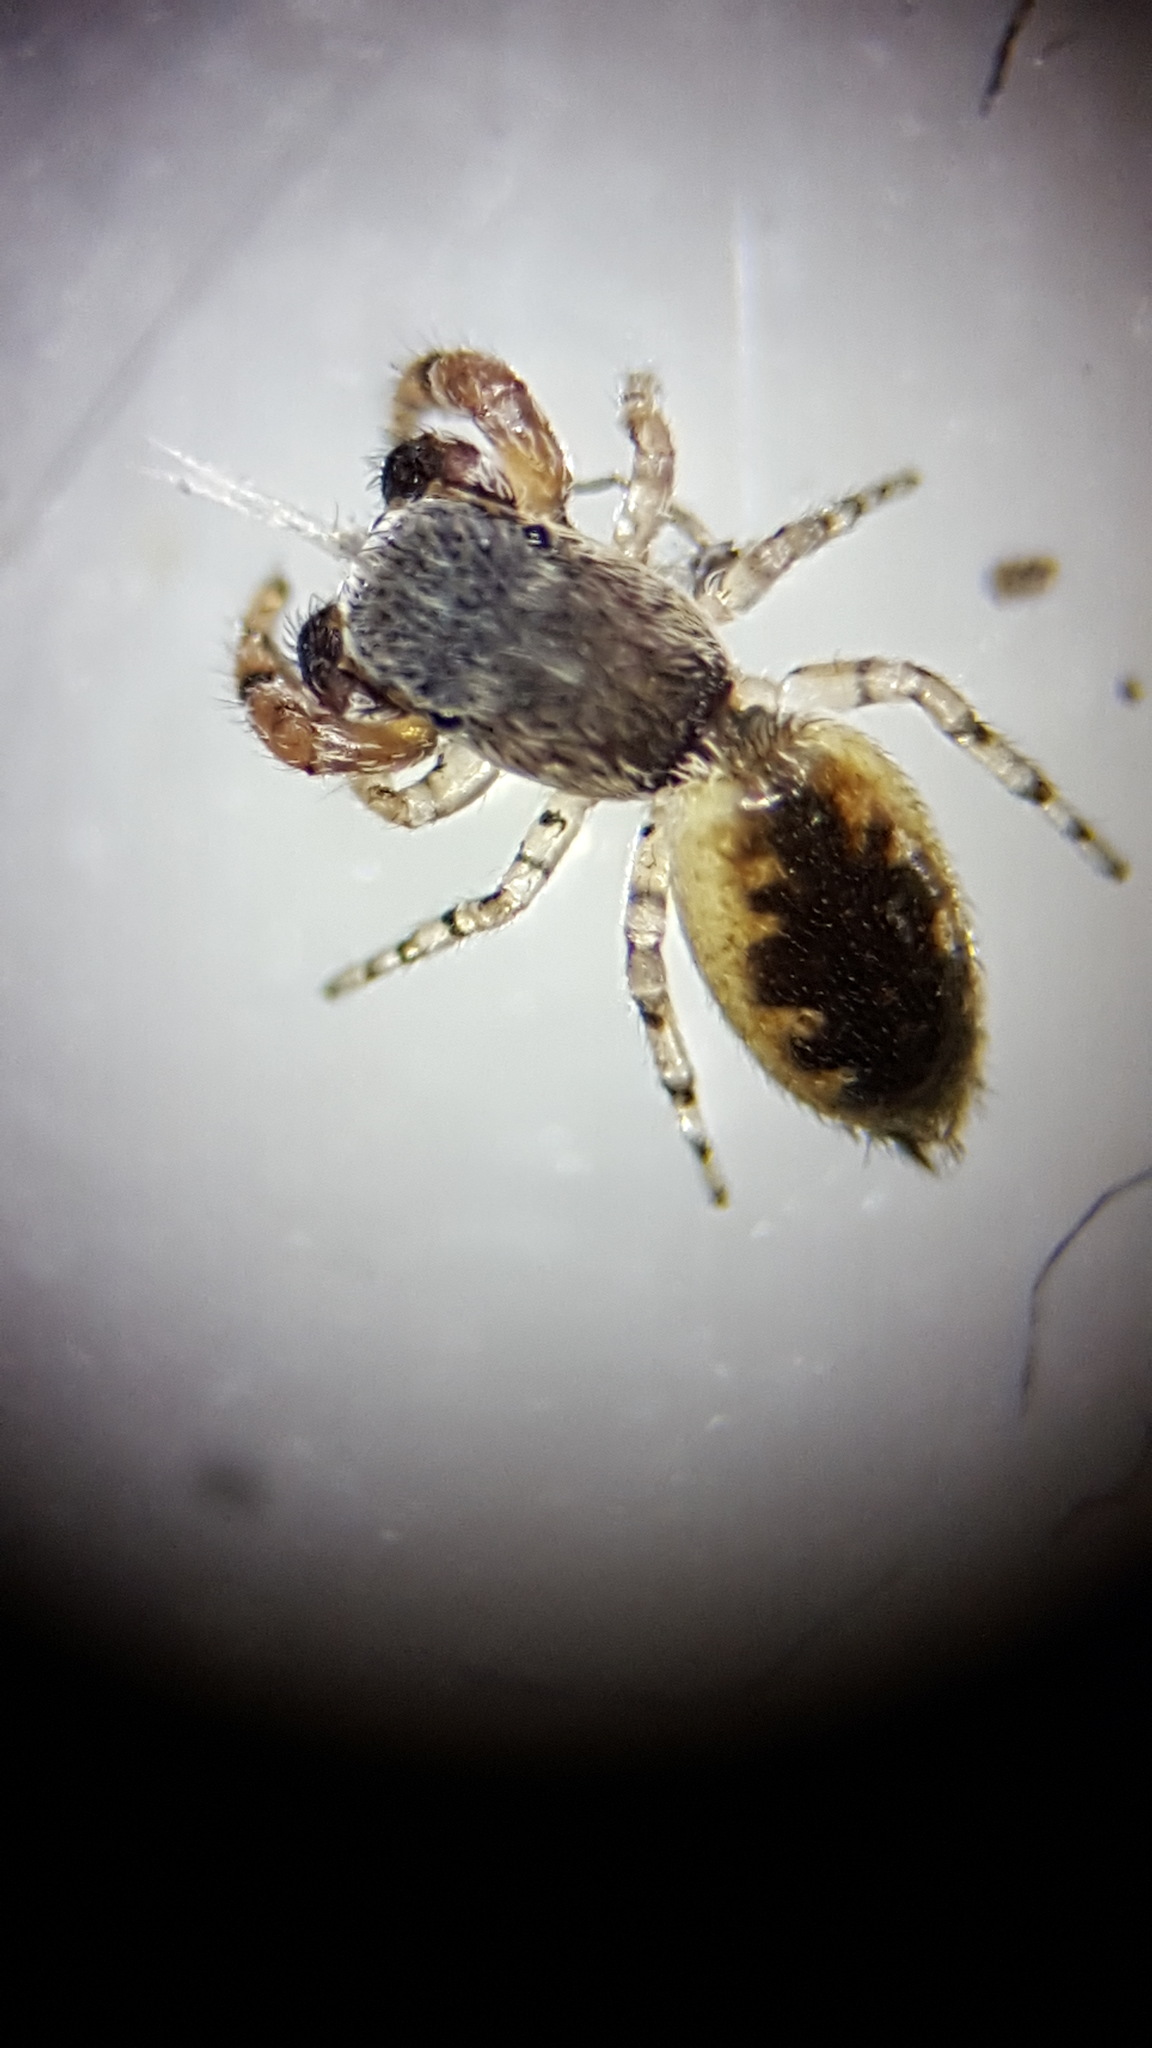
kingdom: Animalia
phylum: Arthropoda
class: Arachnida
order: Araneae
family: Salticidae
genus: Admestina
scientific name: Admestina tibialis
